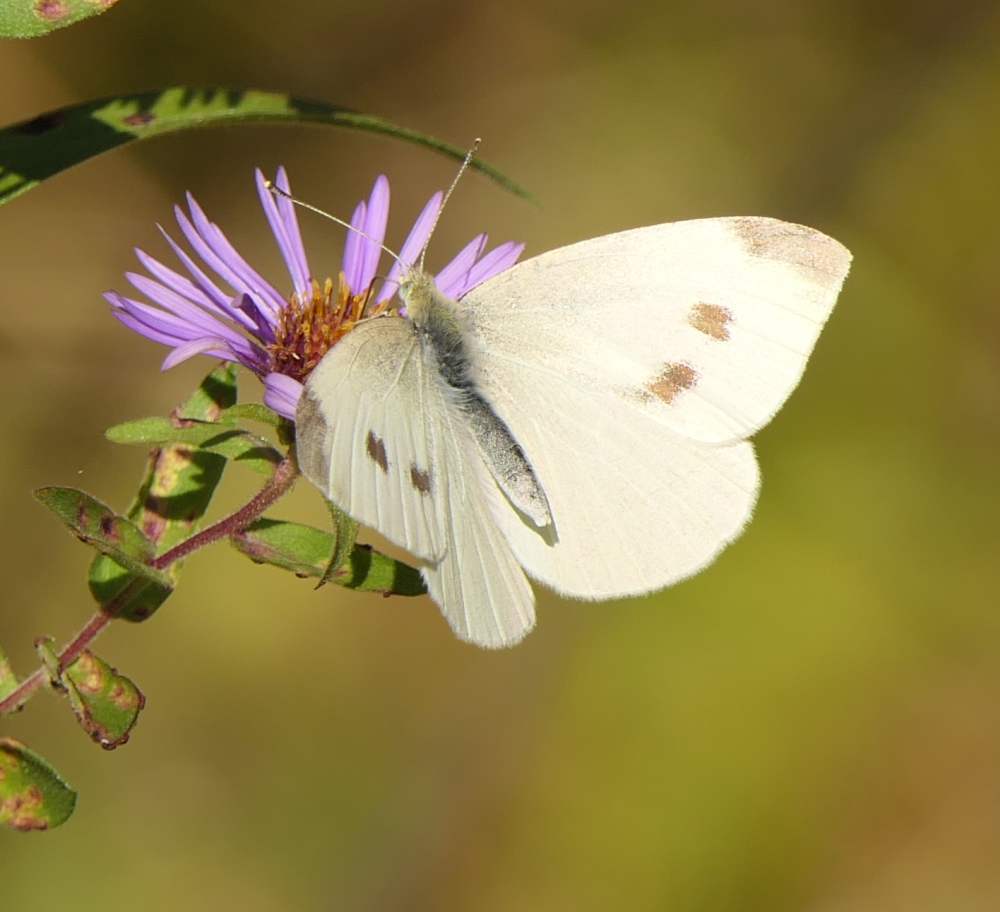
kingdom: Animalia
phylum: Arthropoda
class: Insecta
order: Lepidoptera
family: Pieridae
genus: Pieris
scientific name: Pieris rapae
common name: Small white
